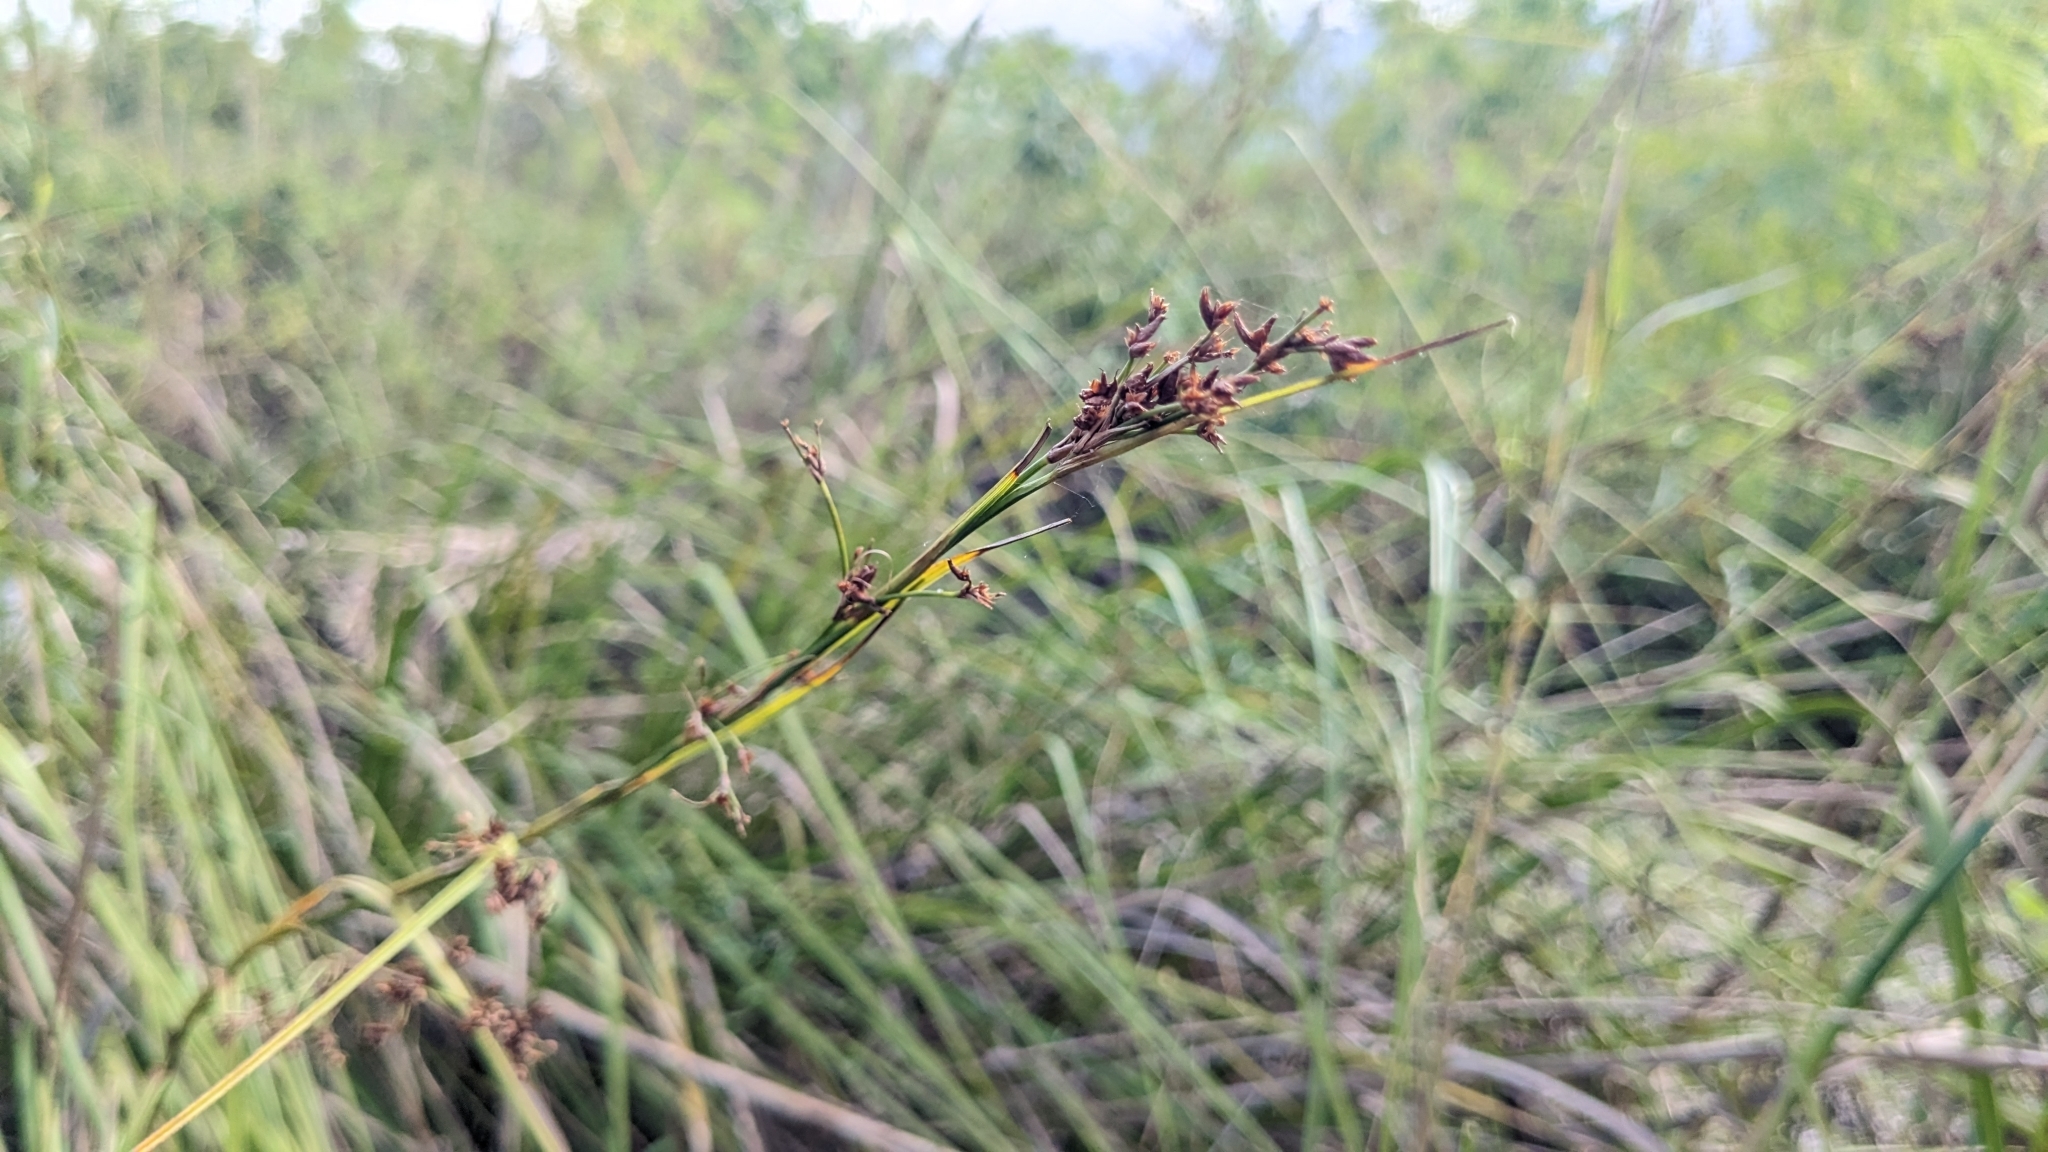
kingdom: Plantae
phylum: Tracheophyta
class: Liliopsida
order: Poales
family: Cyperaceae
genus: Cladium
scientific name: Cladium mariscus
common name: Great fen-sedge
